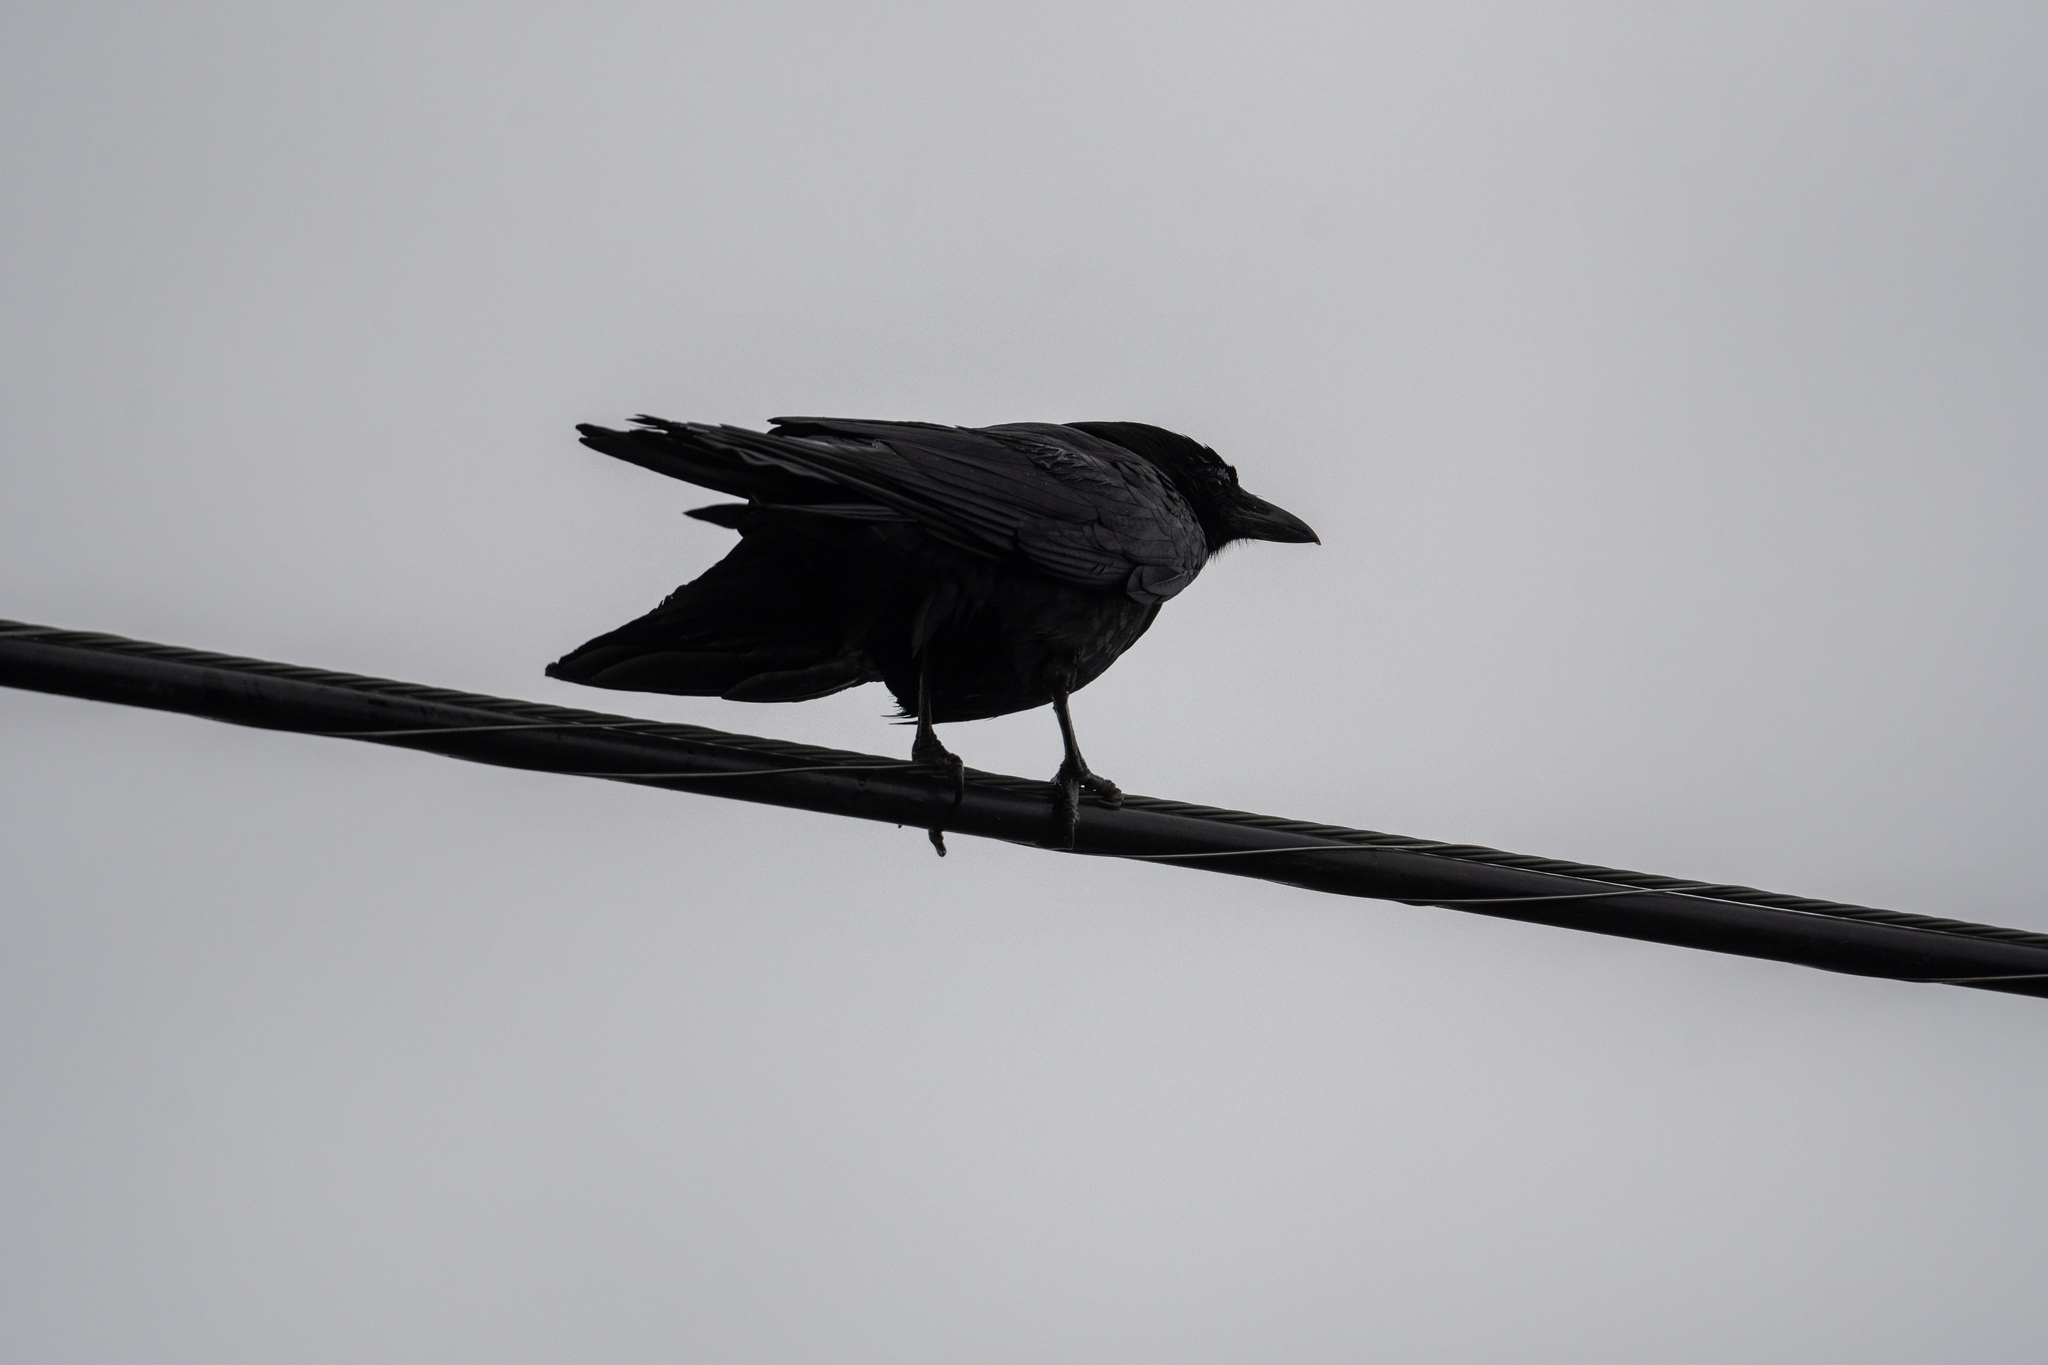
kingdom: Animalia
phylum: Chordata
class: Aves
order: Passeriformes
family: Corvidae
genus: Corvus
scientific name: Corvus brachyrhynchos
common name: American crow
